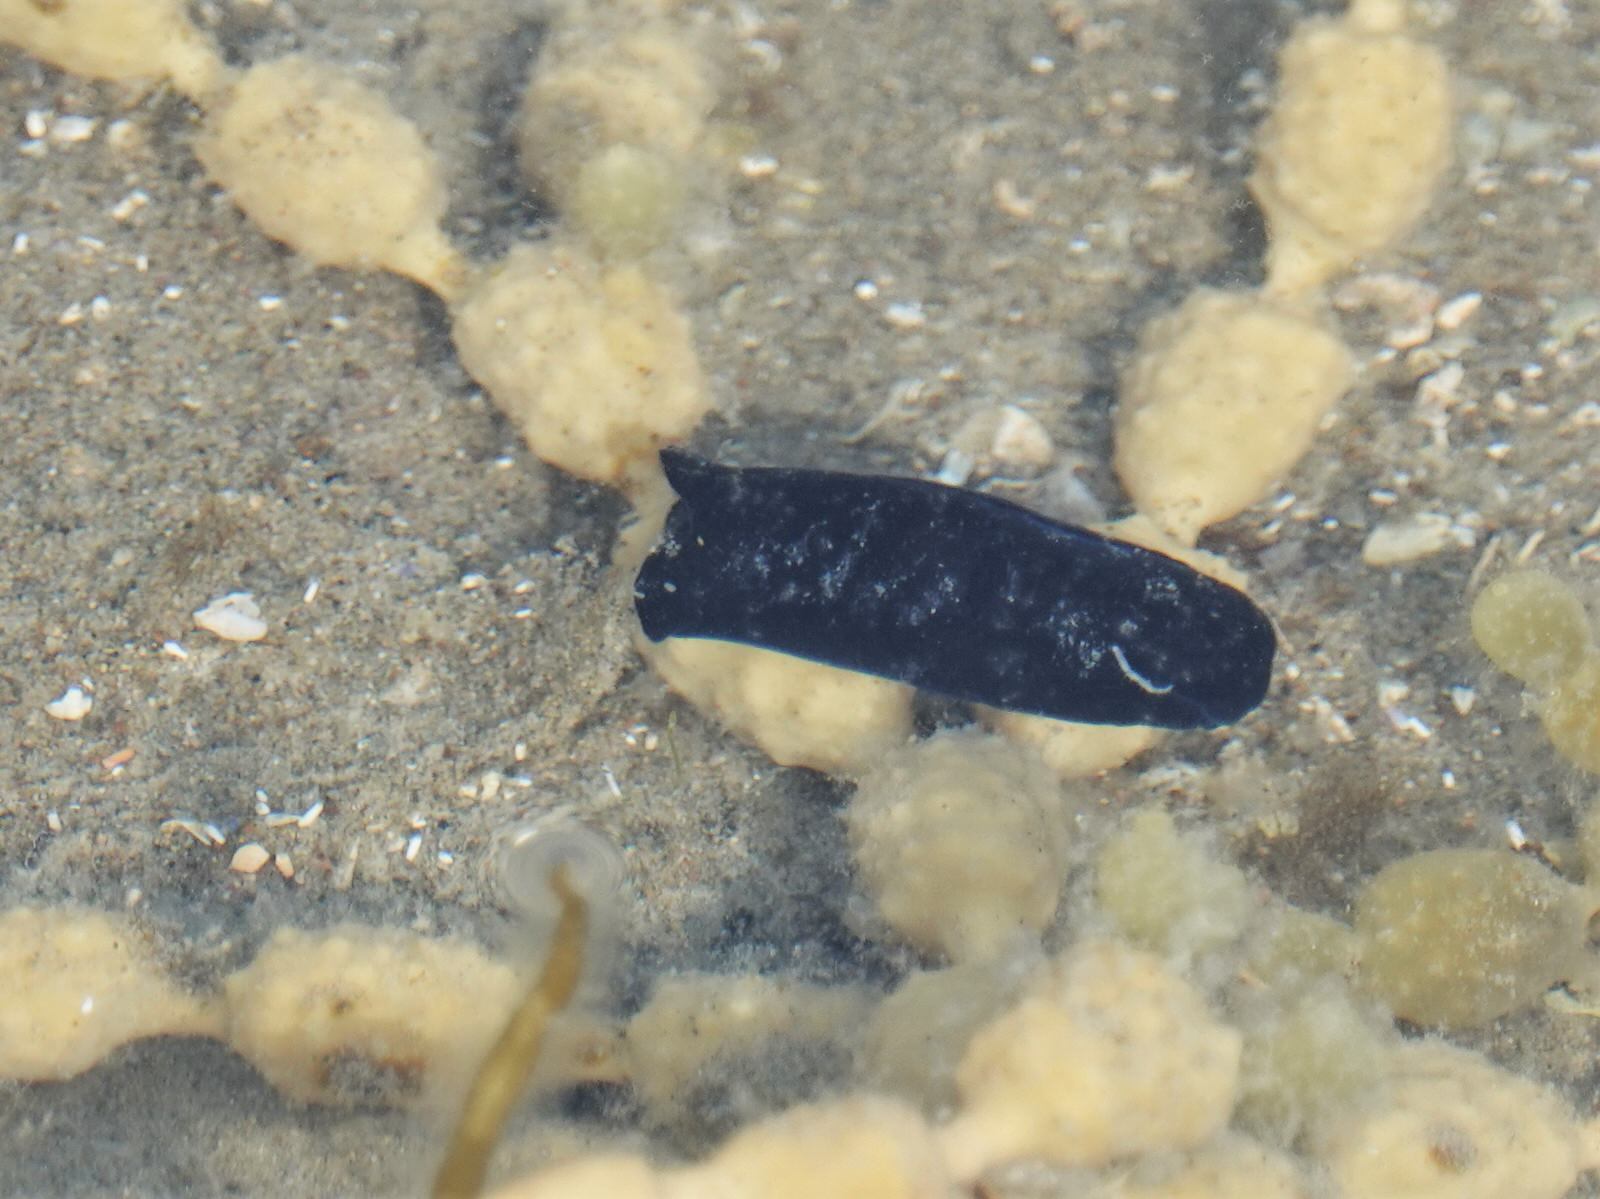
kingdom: Animalia
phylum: Mollusca
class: Gastropoda
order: Cephalaspidea
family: Aglajidae
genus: Melanochlamys
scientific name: Melanochlamys cylindrica
